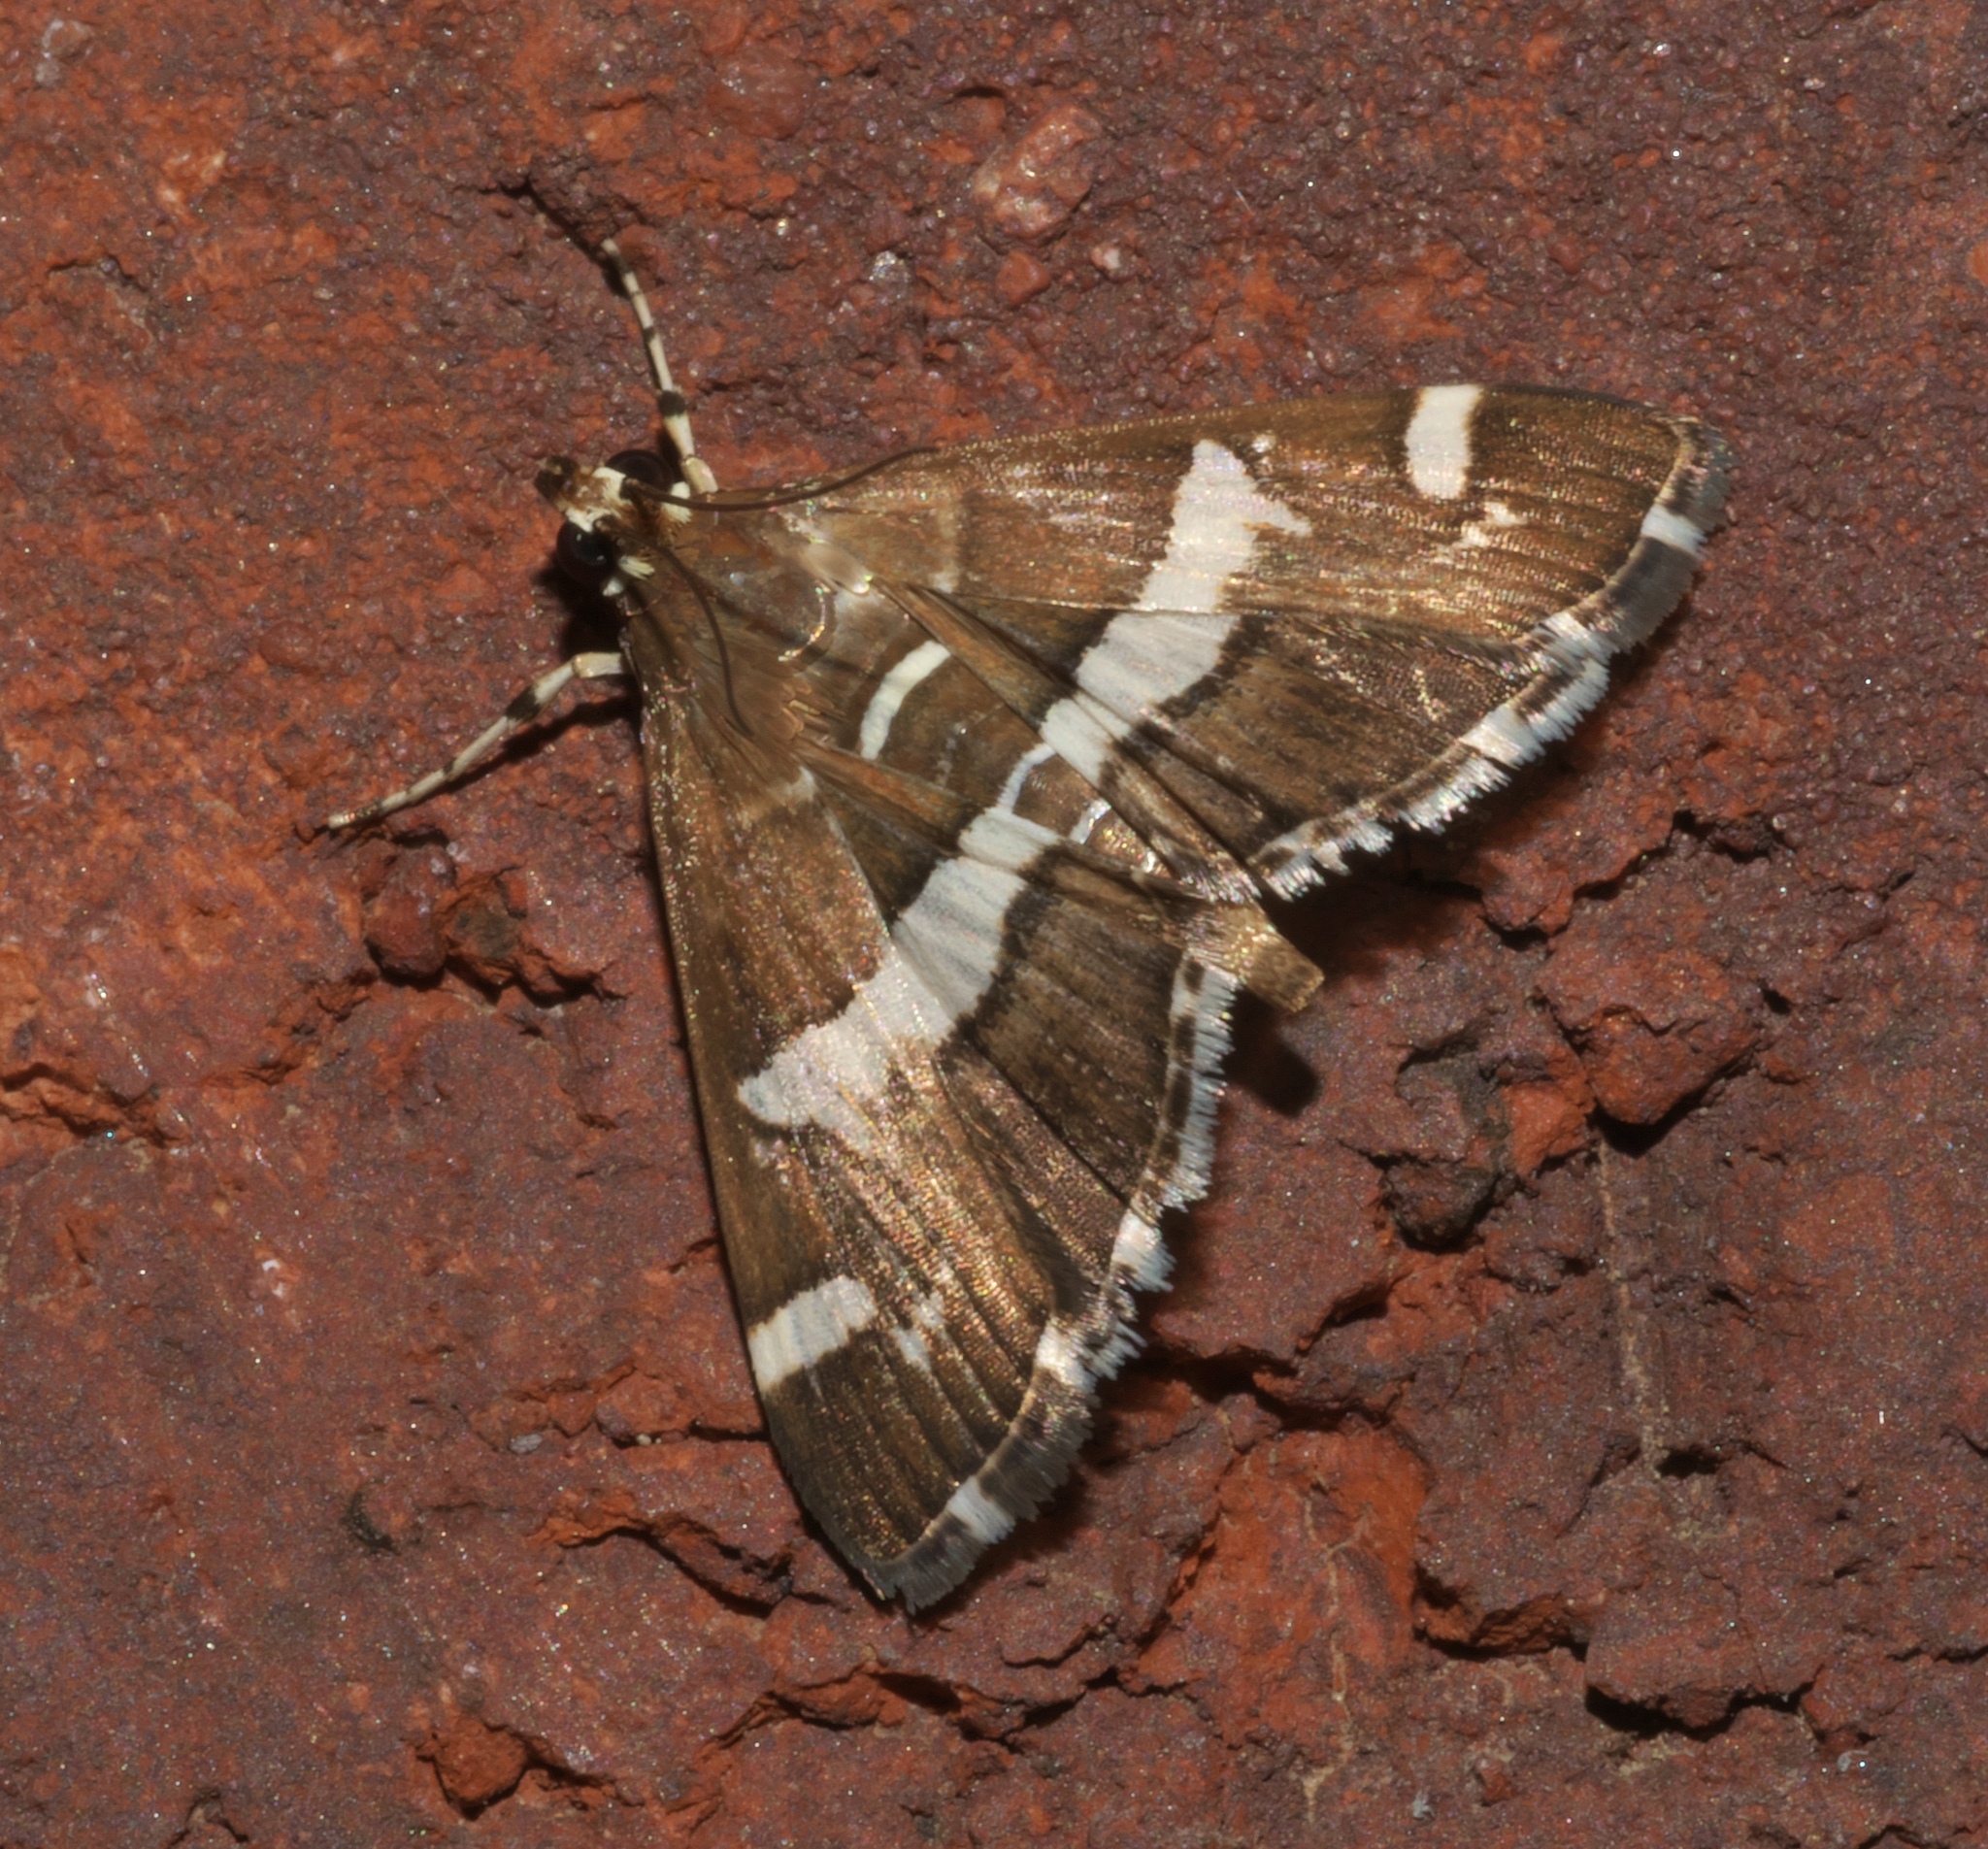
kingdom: Animalia
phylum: Arthropoda
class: Insecta
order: Lepidoptera
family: Crambidae
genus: Spoladea
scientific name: Spoladea recurvalis
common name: Beet webworm moth
